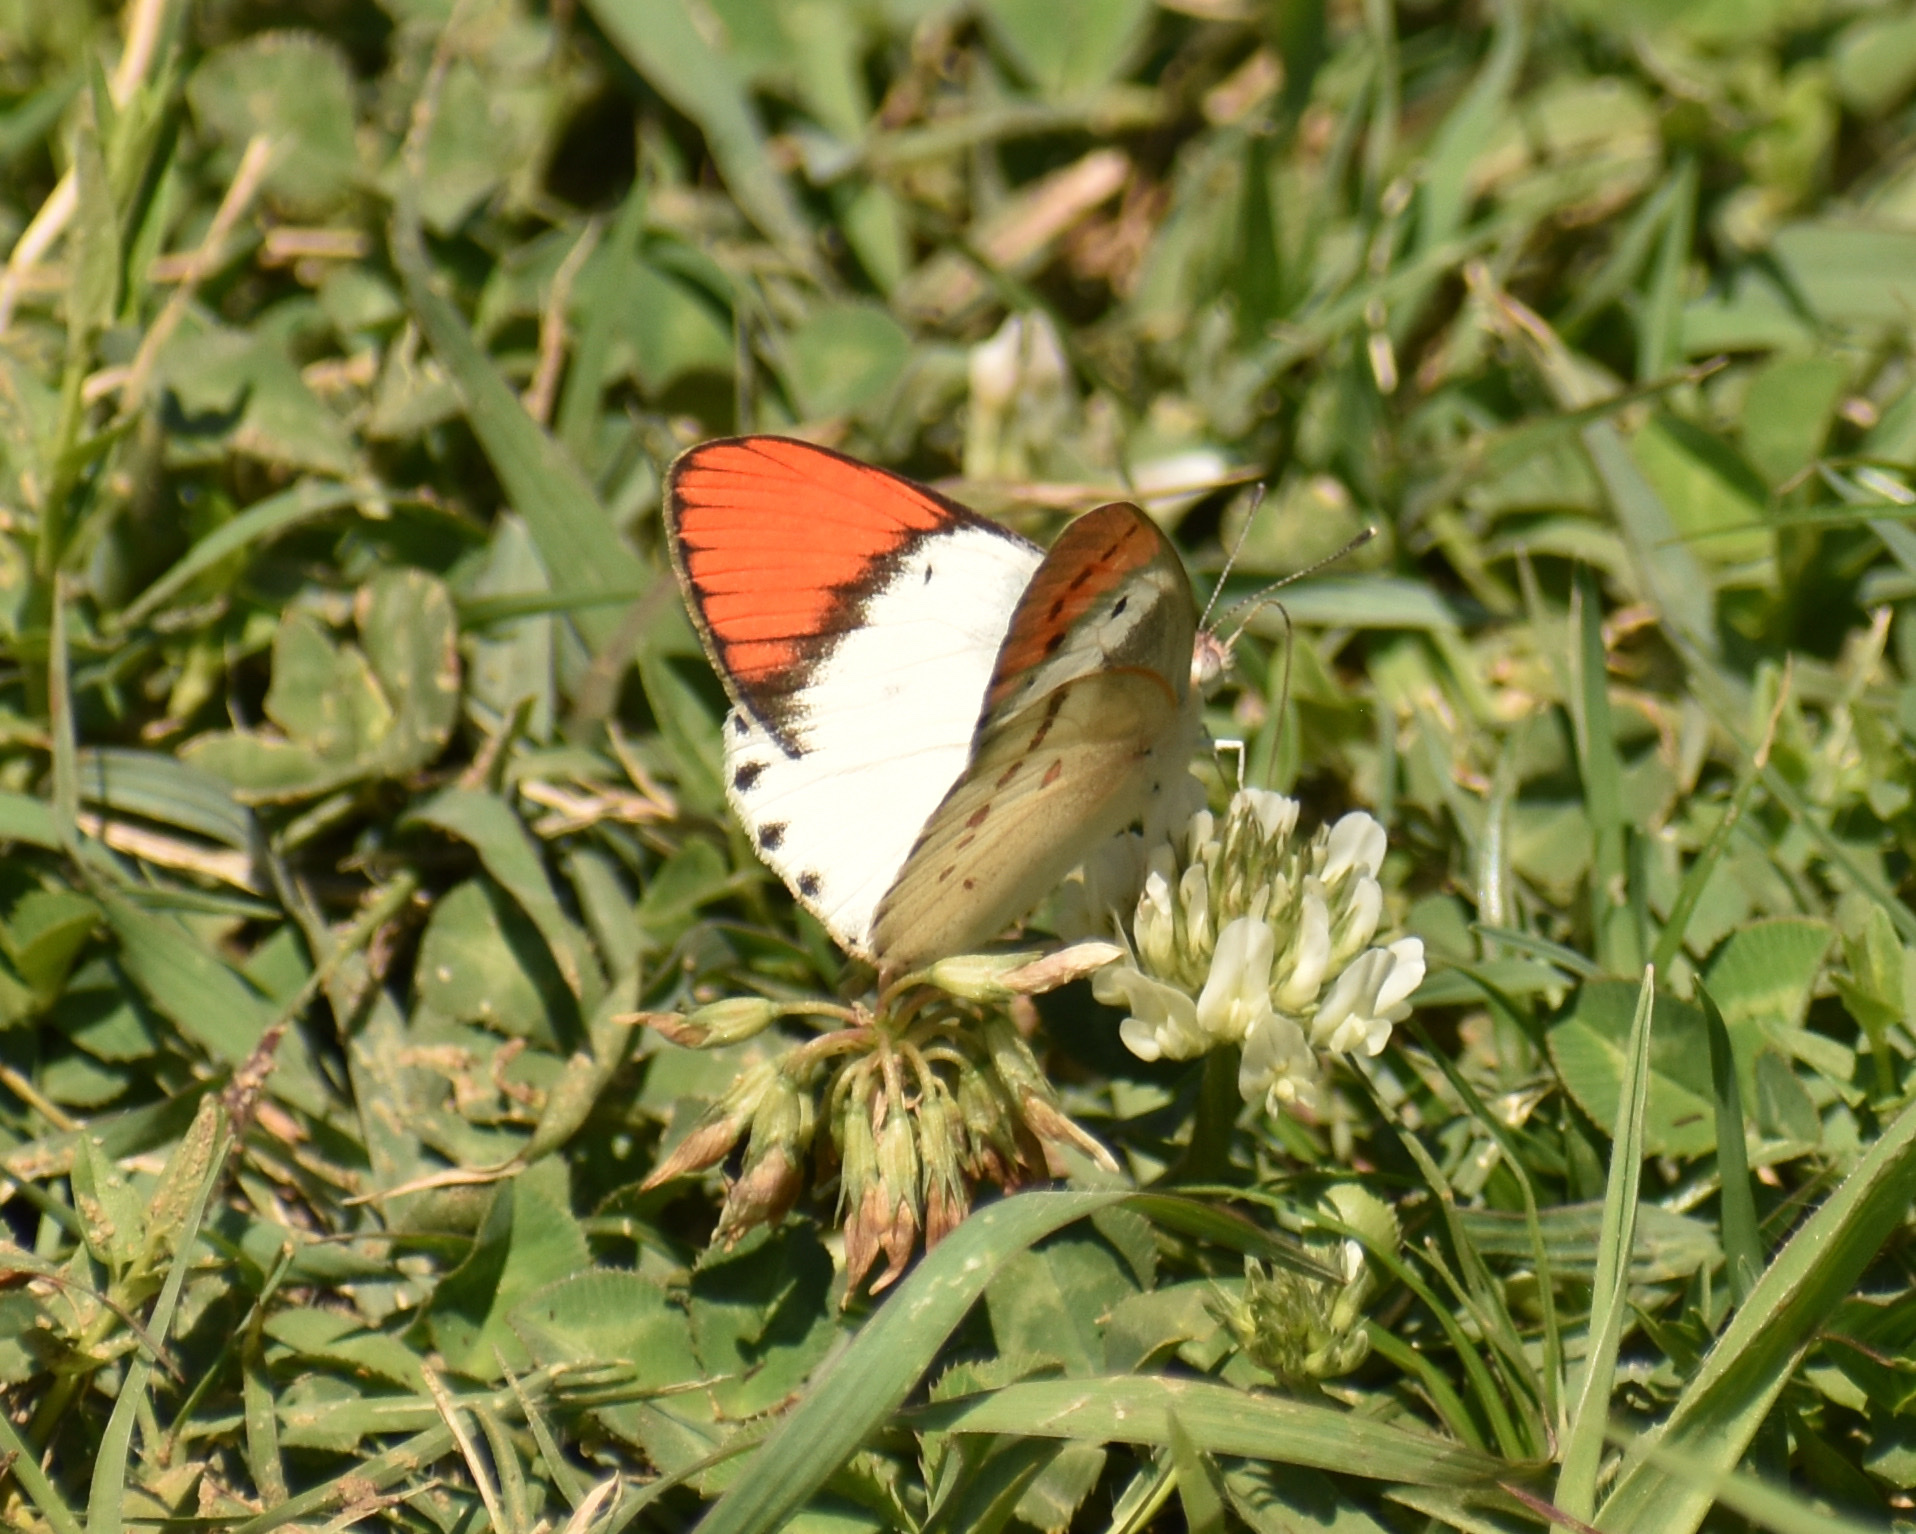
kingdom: Animalia
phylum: Arthropoda
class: Insecta
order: Lepidoptera
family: Pieridae
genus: Colotis
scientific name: Colotis annae
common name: Scarlet tip
